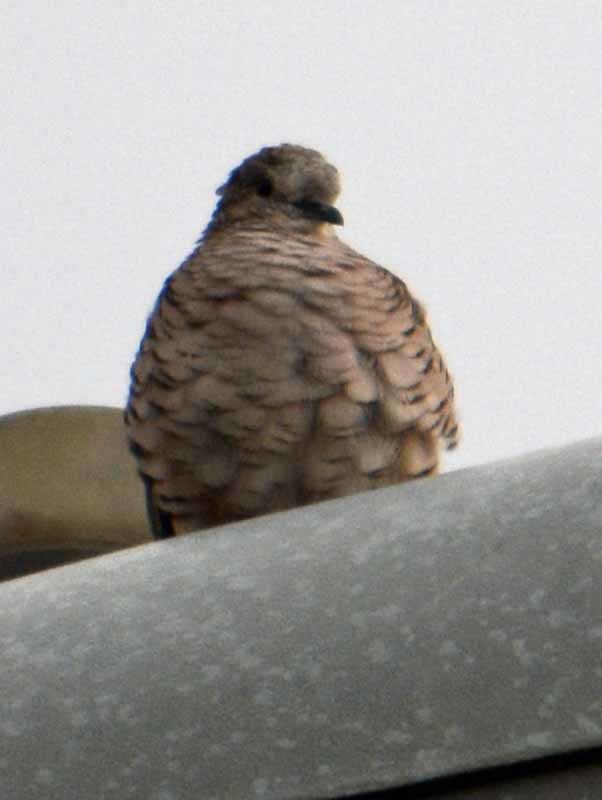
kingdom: Animalia
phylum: Chordata
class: Aves
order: Columbiformes
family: Columbidae
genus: Columbina
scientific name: Columbina inca
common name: Inca dove
